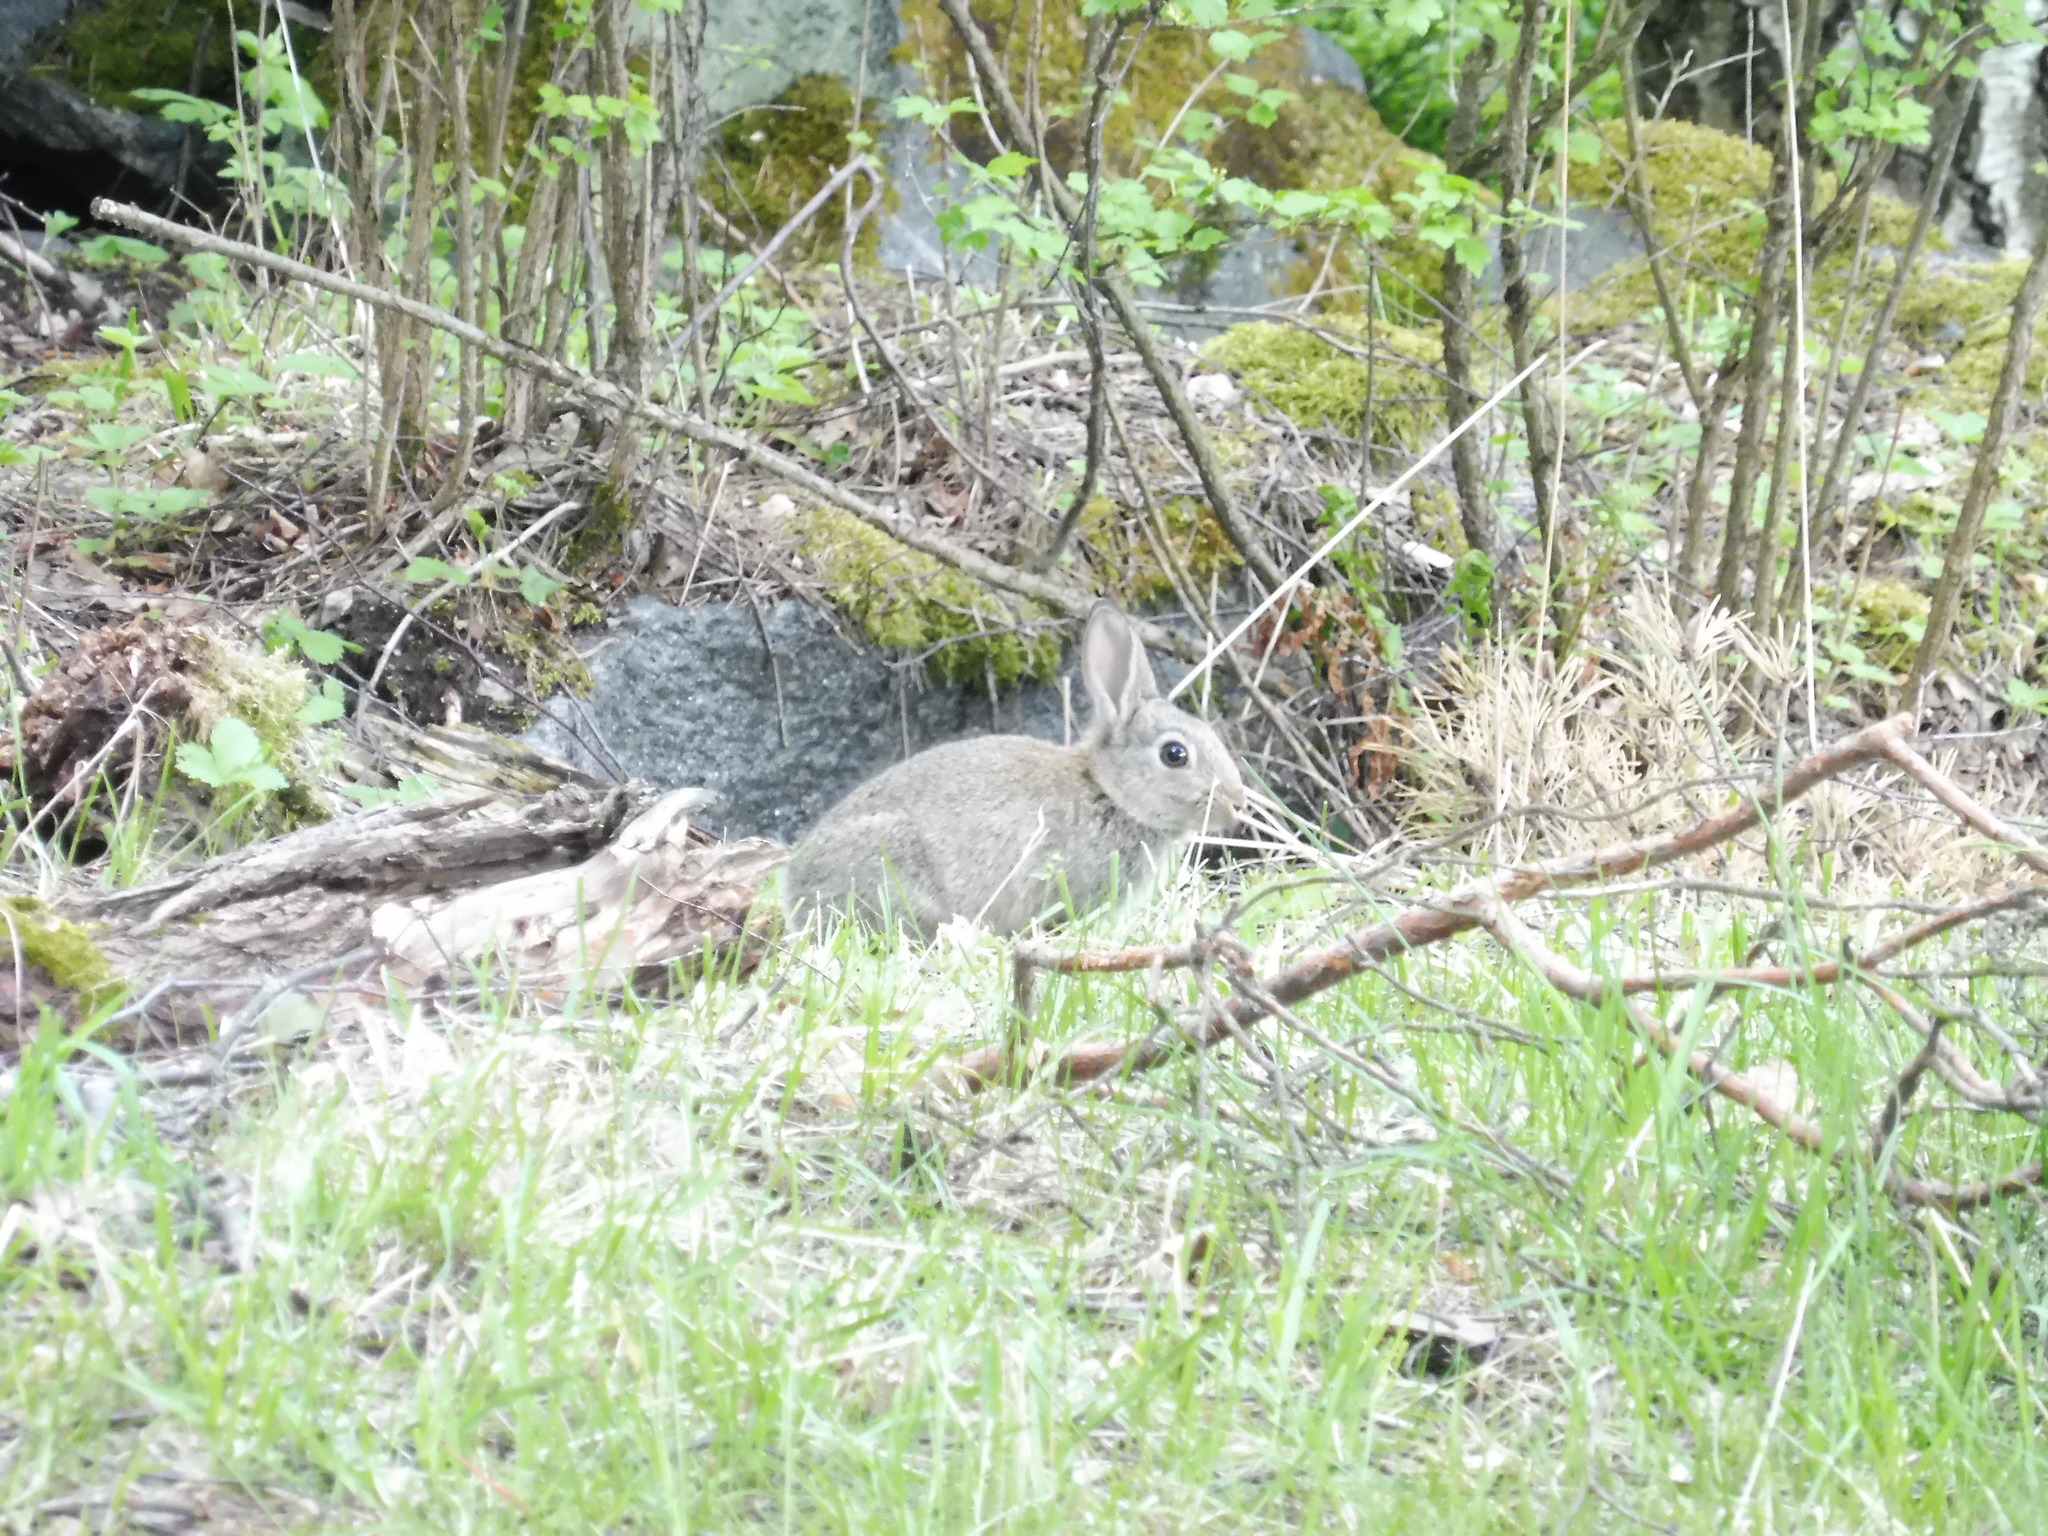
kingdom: Animalia
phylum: Chordata
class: Mammalia
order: Lagomorpha
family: Leporidae
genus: Oryctolagus
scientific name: Oryctolagus cuniculus
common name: European rabbit
